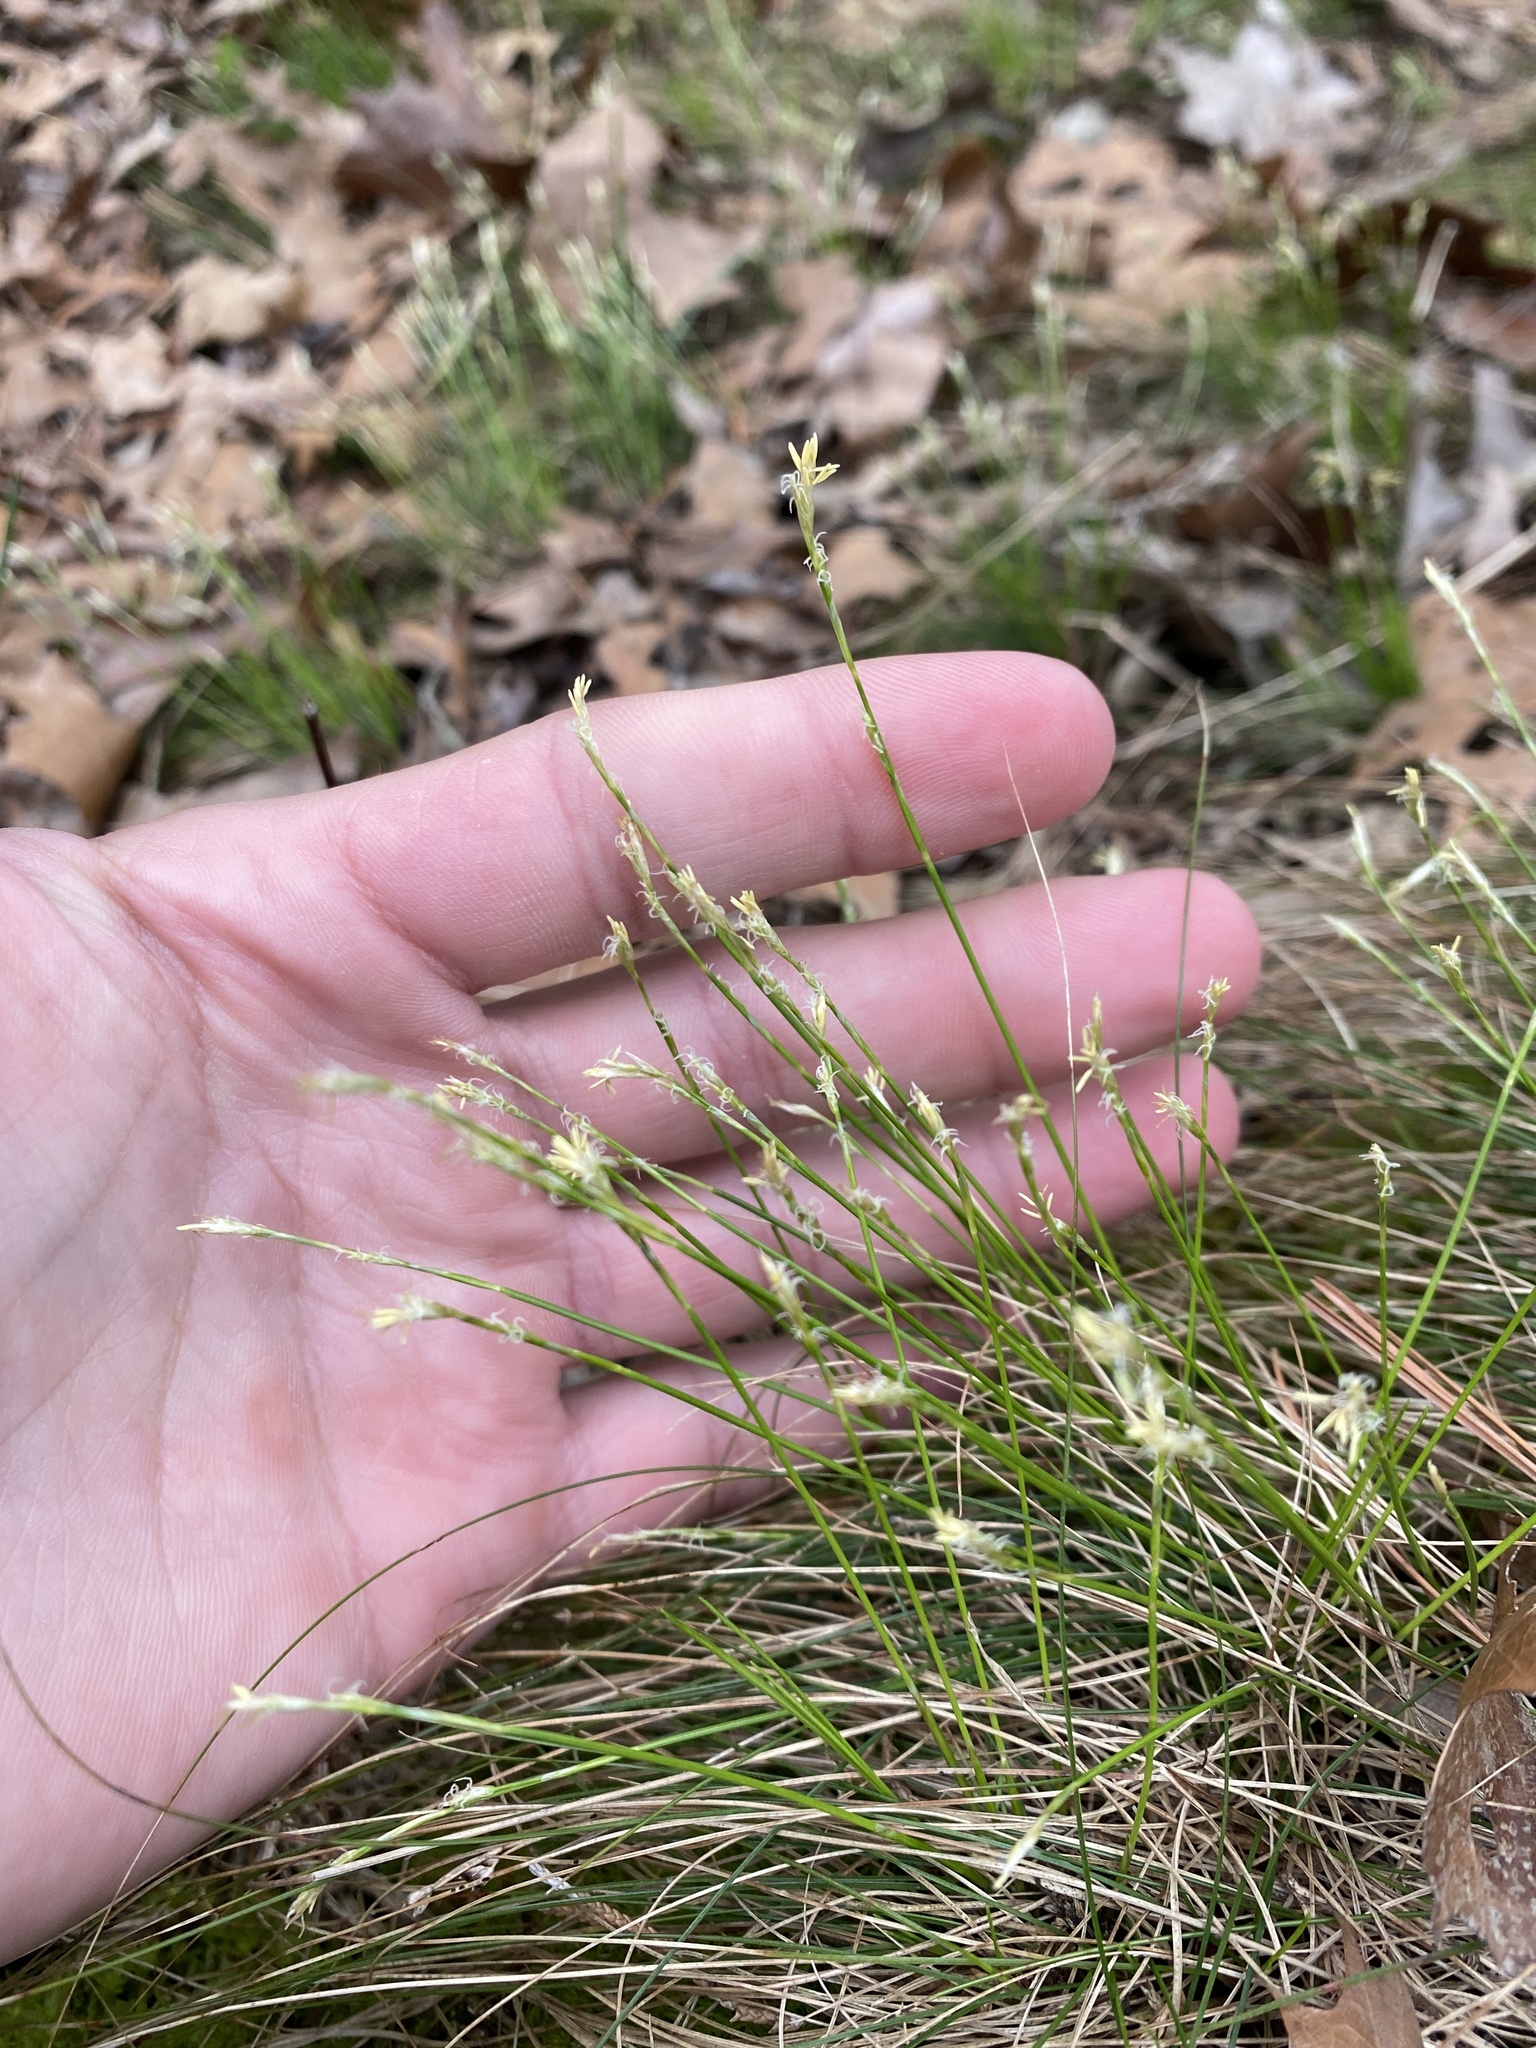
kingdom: Plantae
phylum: Tracheophyta
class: Liliopsida
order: Poales
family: Cyperaceae
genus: Carex
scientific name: Carex eburnea
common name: Bristle-leaved sedge
